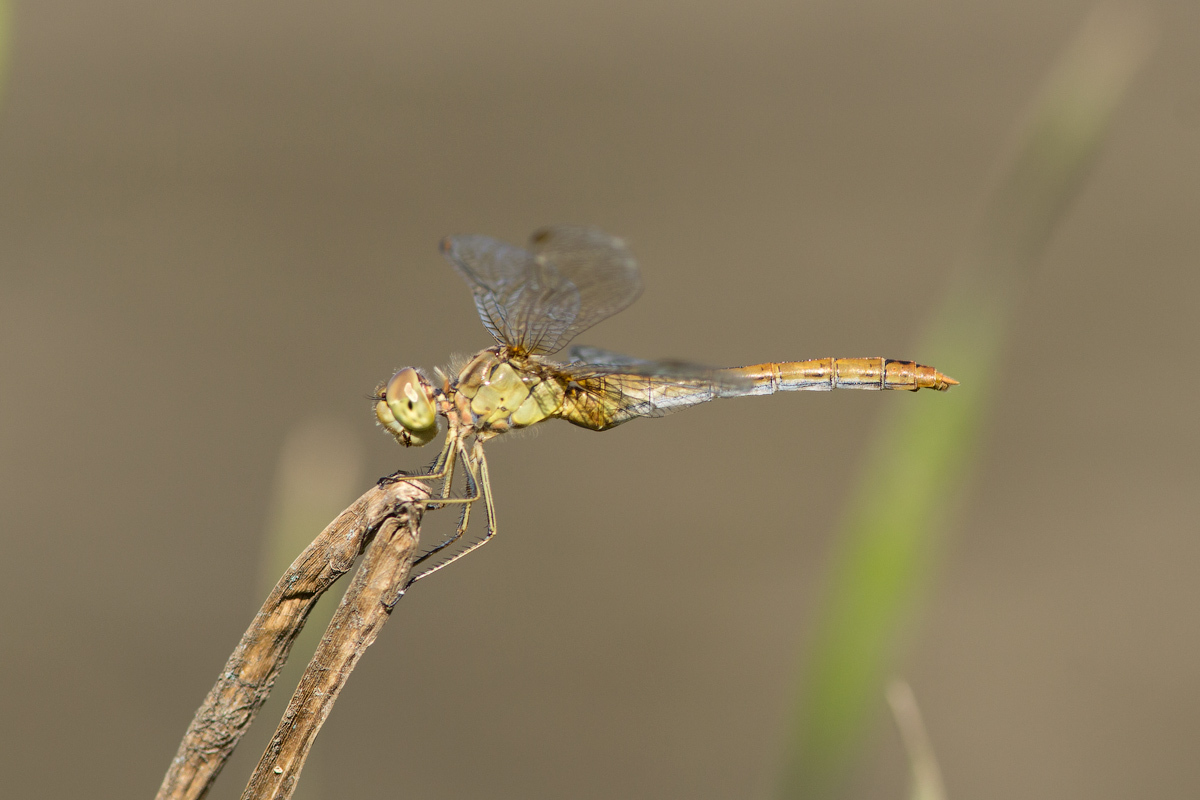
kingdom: Animalia
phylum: Arthropoda
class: Insecta
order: Odonata
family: Libellulidae
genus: Sympetrum
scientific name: Sympetrum meridionale
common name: Southern darter
